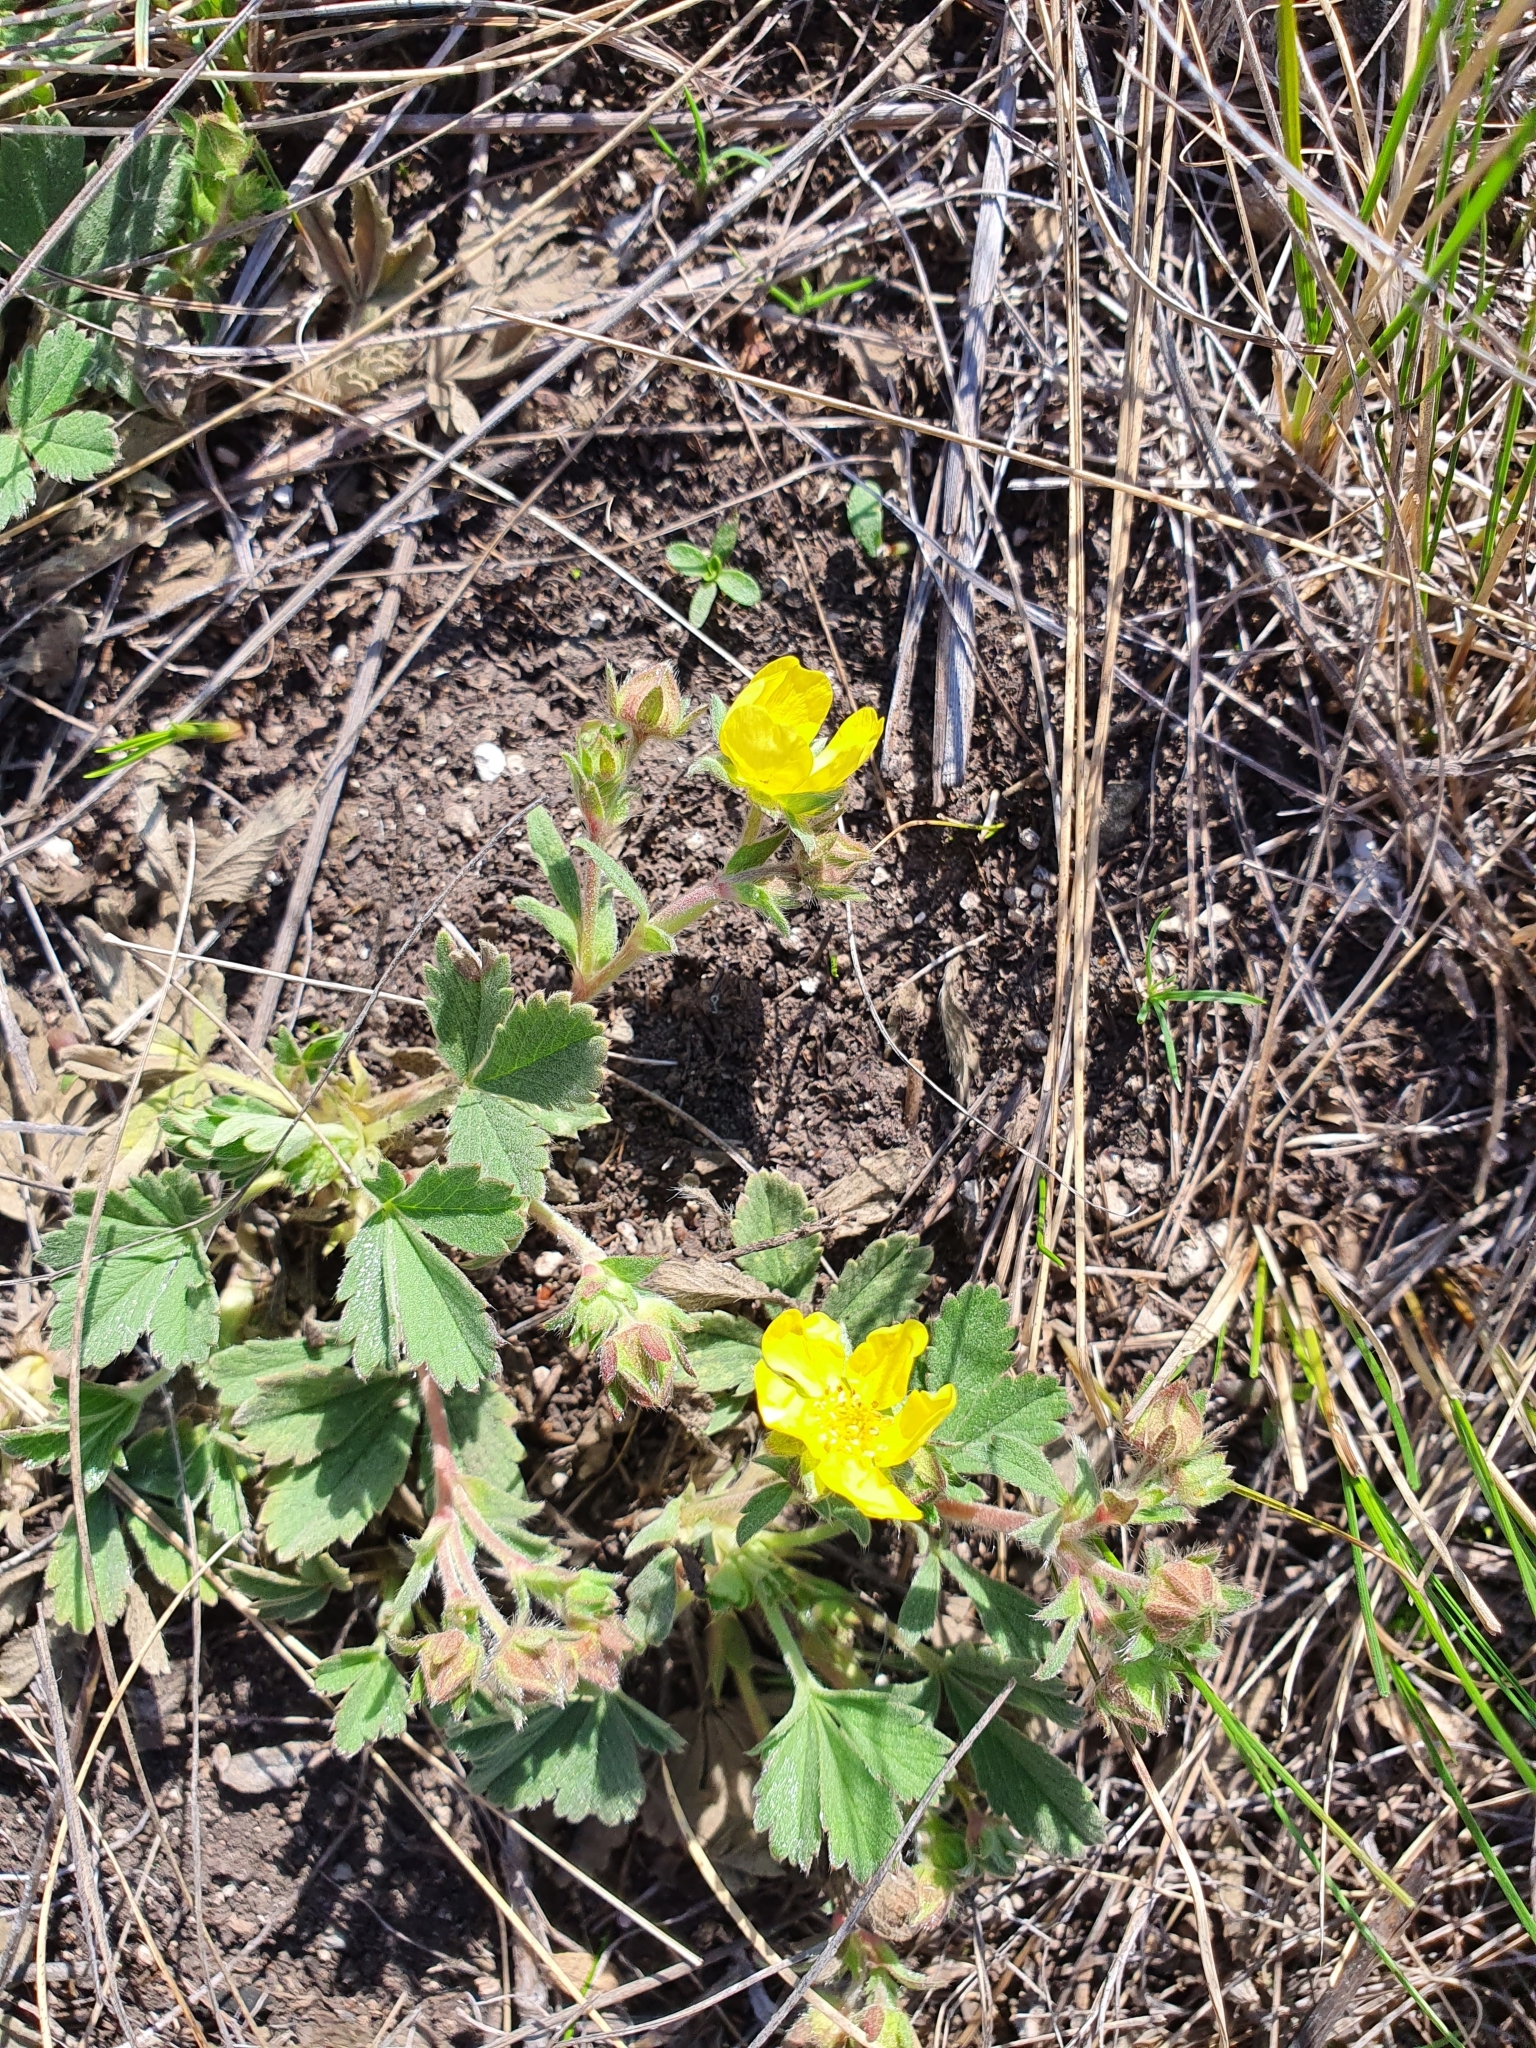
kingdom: Plantae
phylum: Tracheophyta
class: Magnoliopsida
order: Rosales
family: Rosaceae
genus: Potentilla
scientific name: Potentilla glaucescens
